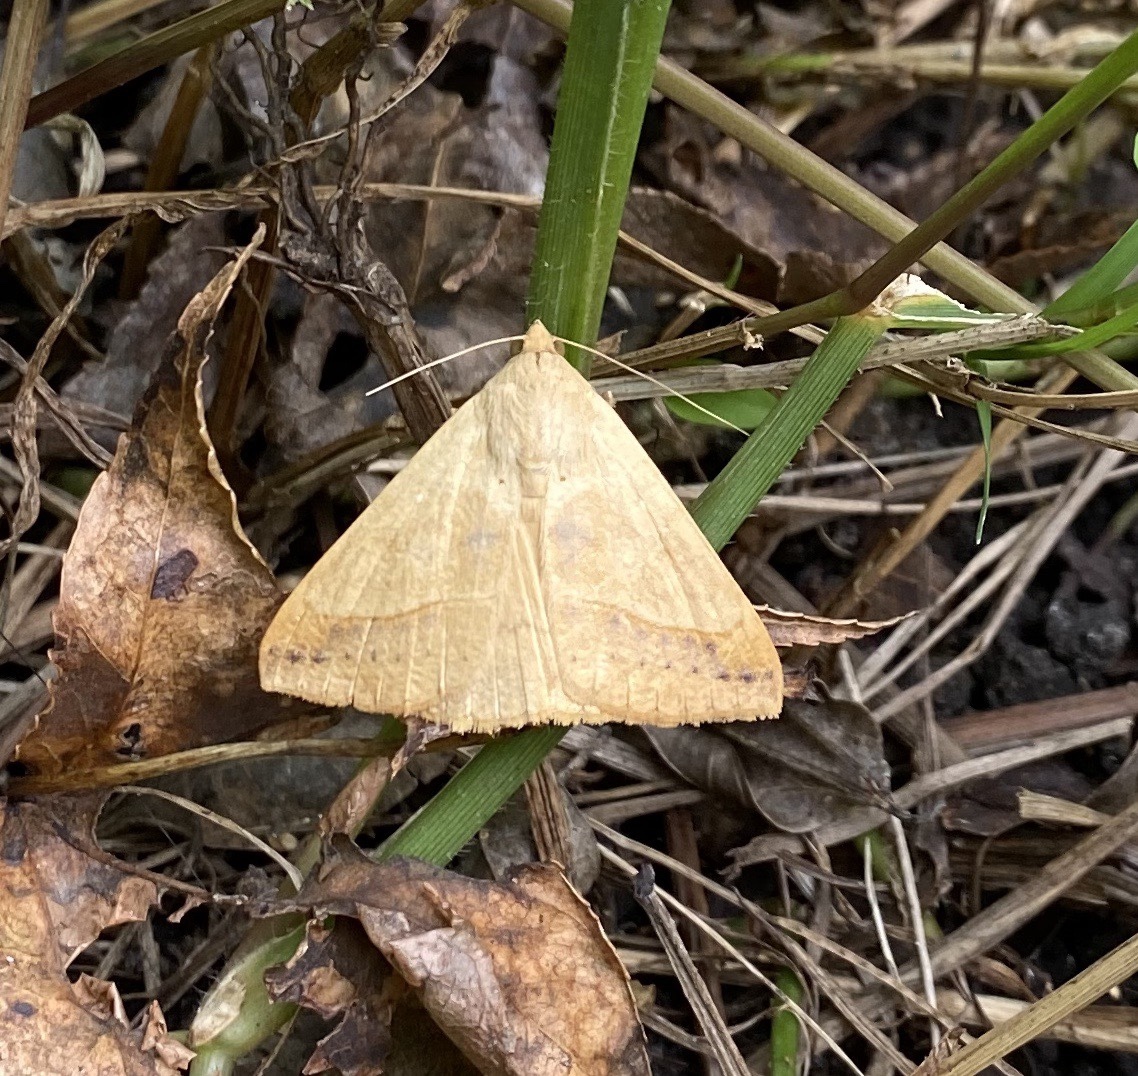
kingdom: Animalia
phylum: Arthropoda
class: Insecta
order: Lepidoptera
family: Erebidae
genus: Mocis
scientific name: Mocis disseverans
